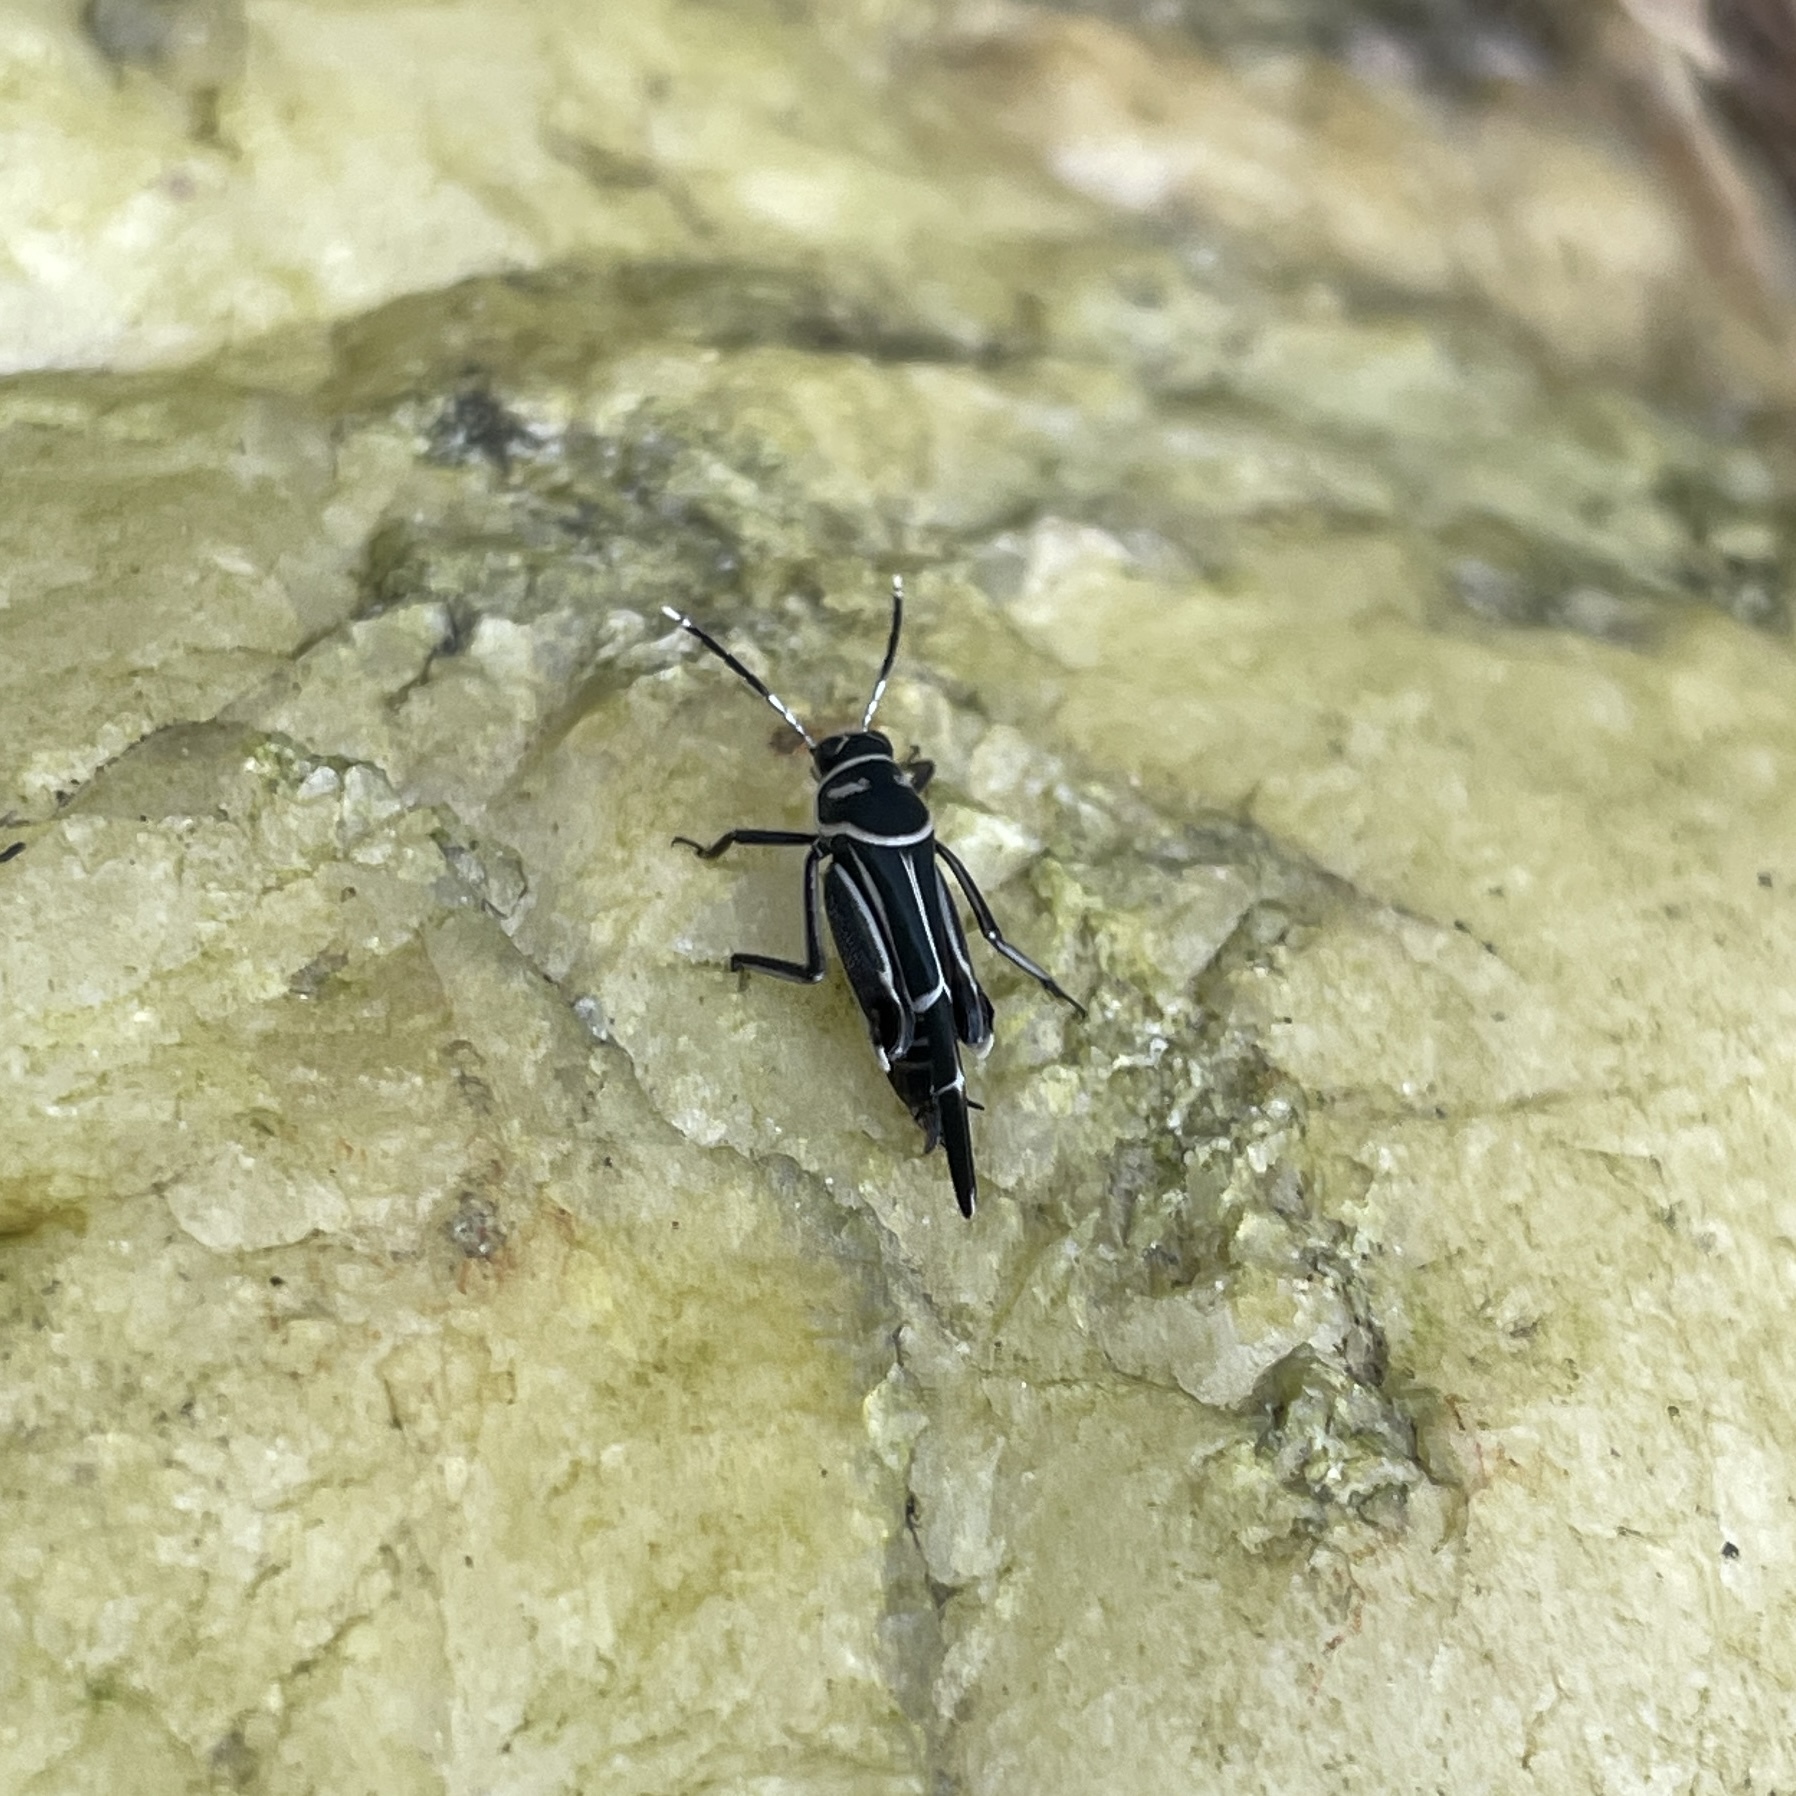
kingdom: Animalia
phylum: Arthropoda
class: Insecta
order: Orthoptera
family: Ripipterygidae
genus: Ripipteryx
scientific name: Ripipteryx rivularia
